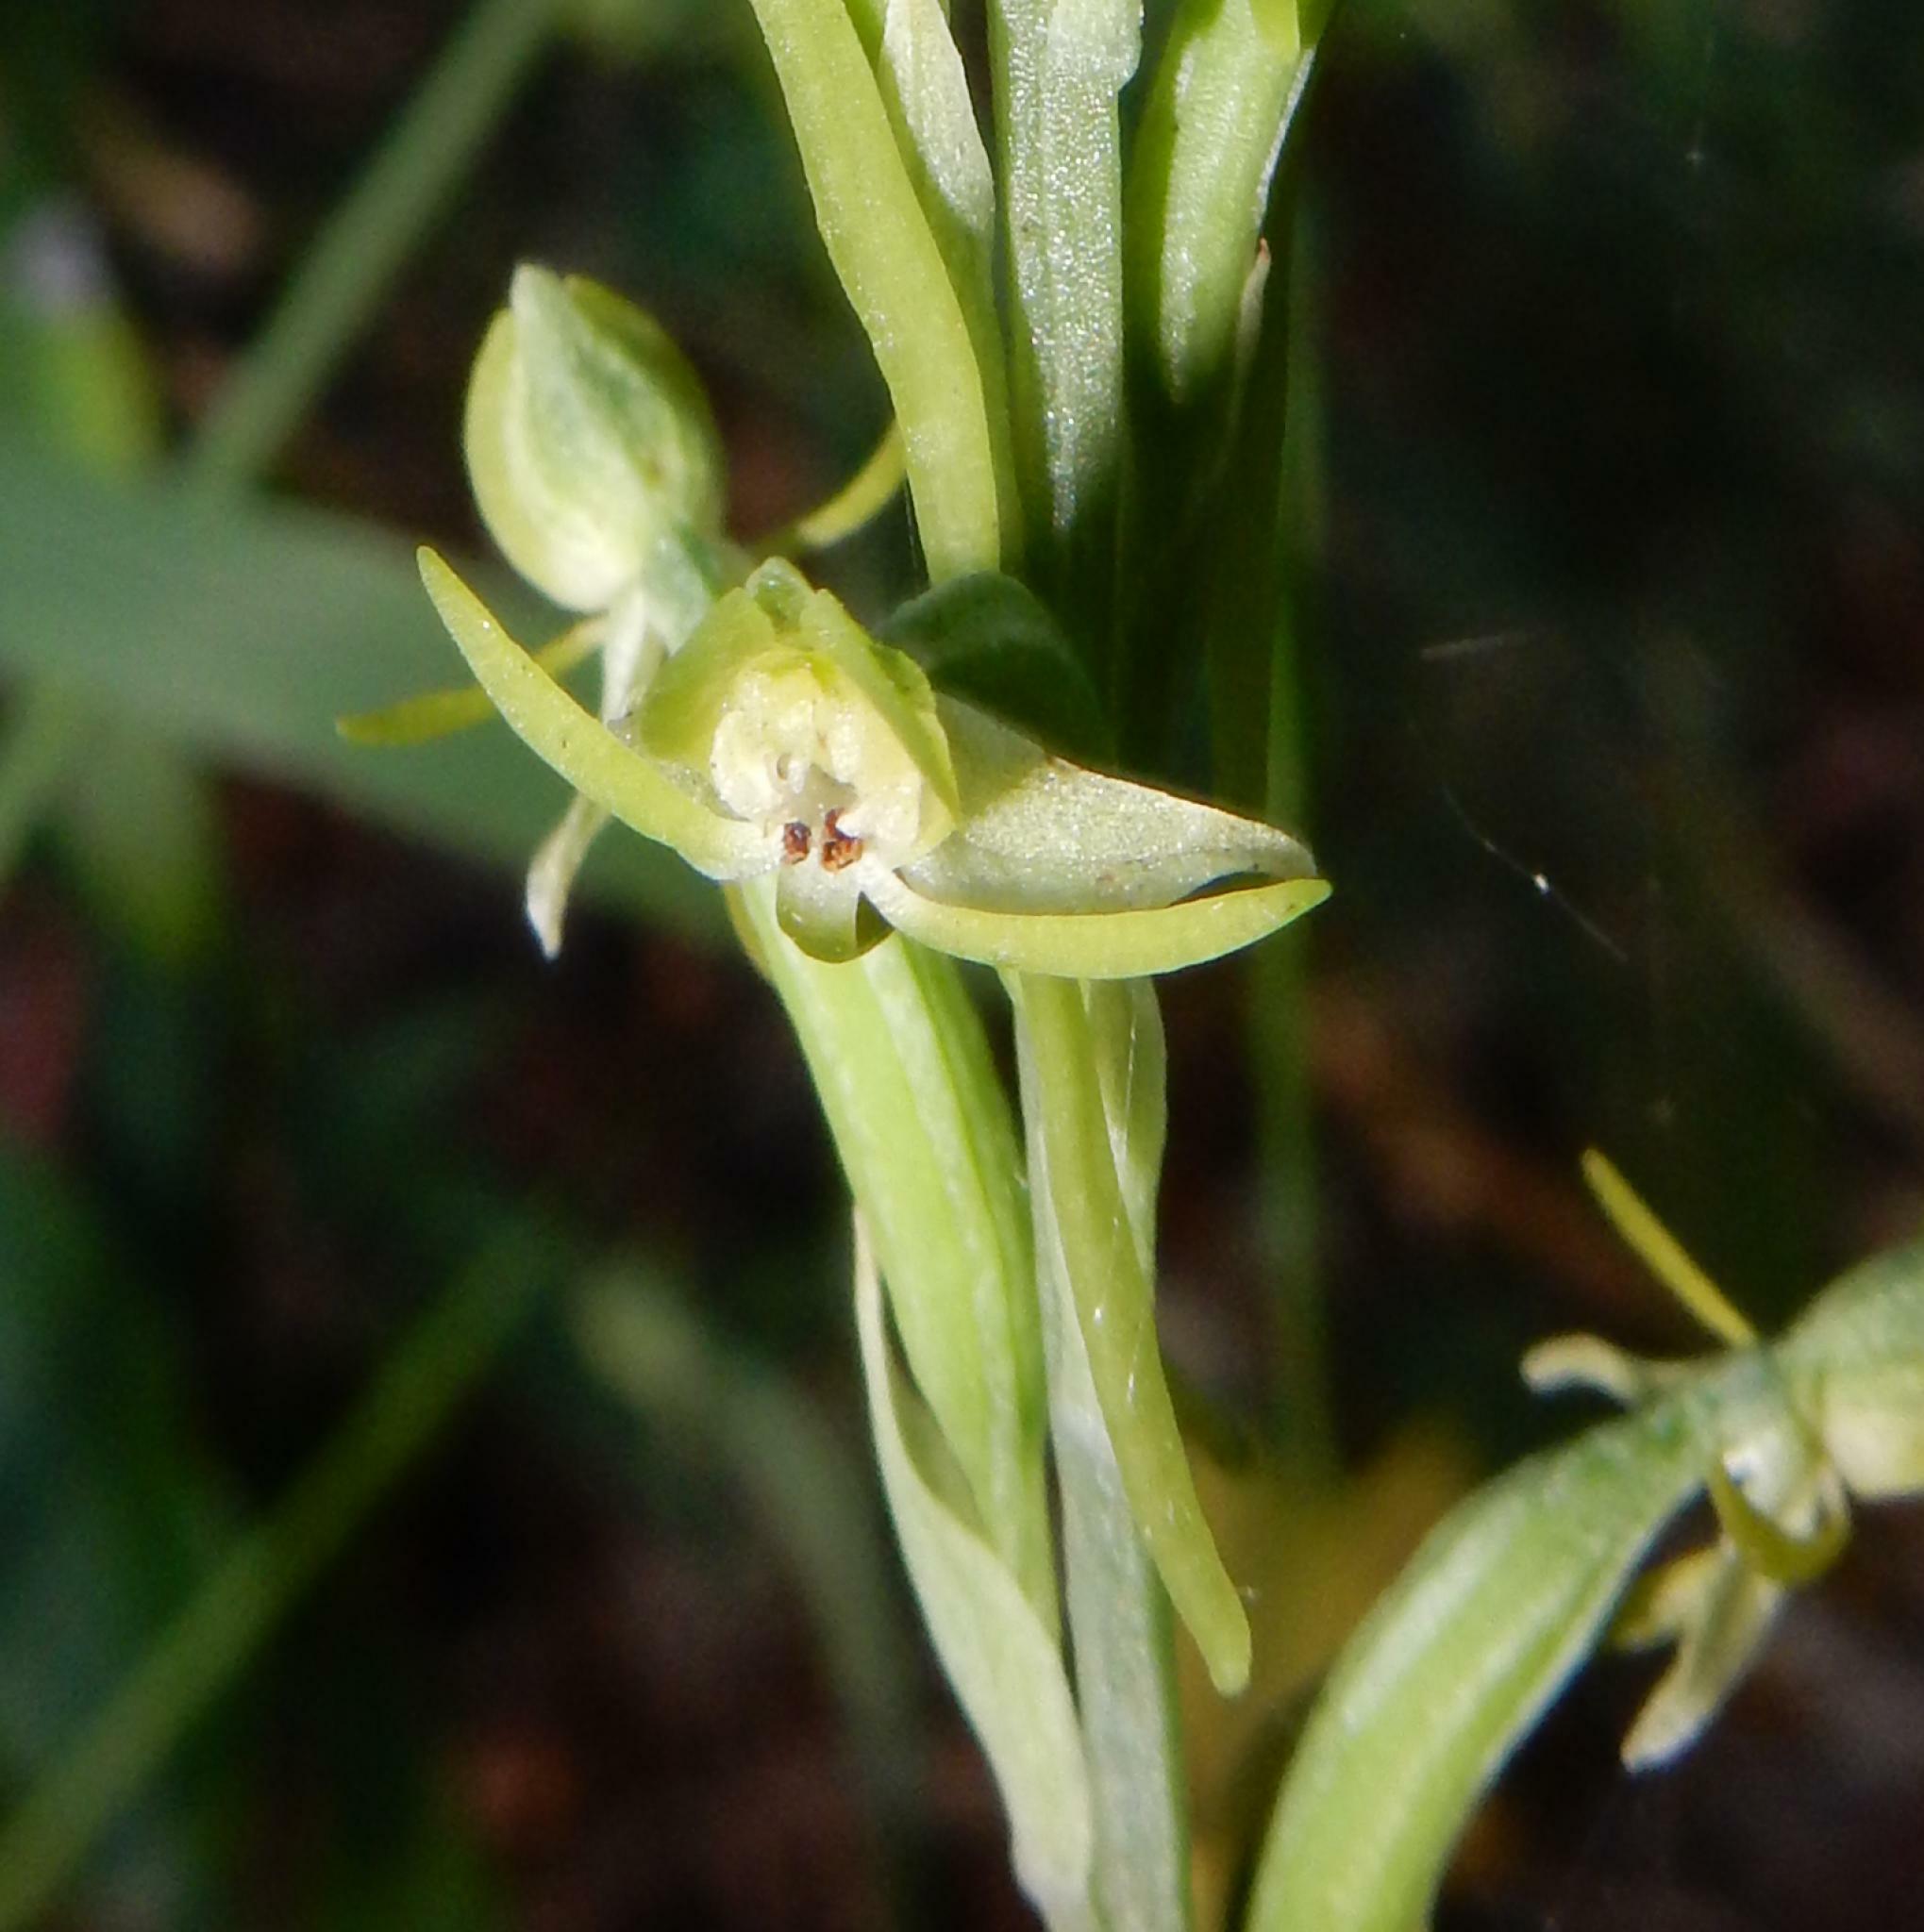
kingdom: Plantae
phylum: Tracheophyta
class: Liliopsida
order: Asparagales
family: Orchidaceae
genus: Habenaria
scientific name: Habenaria arenaria
